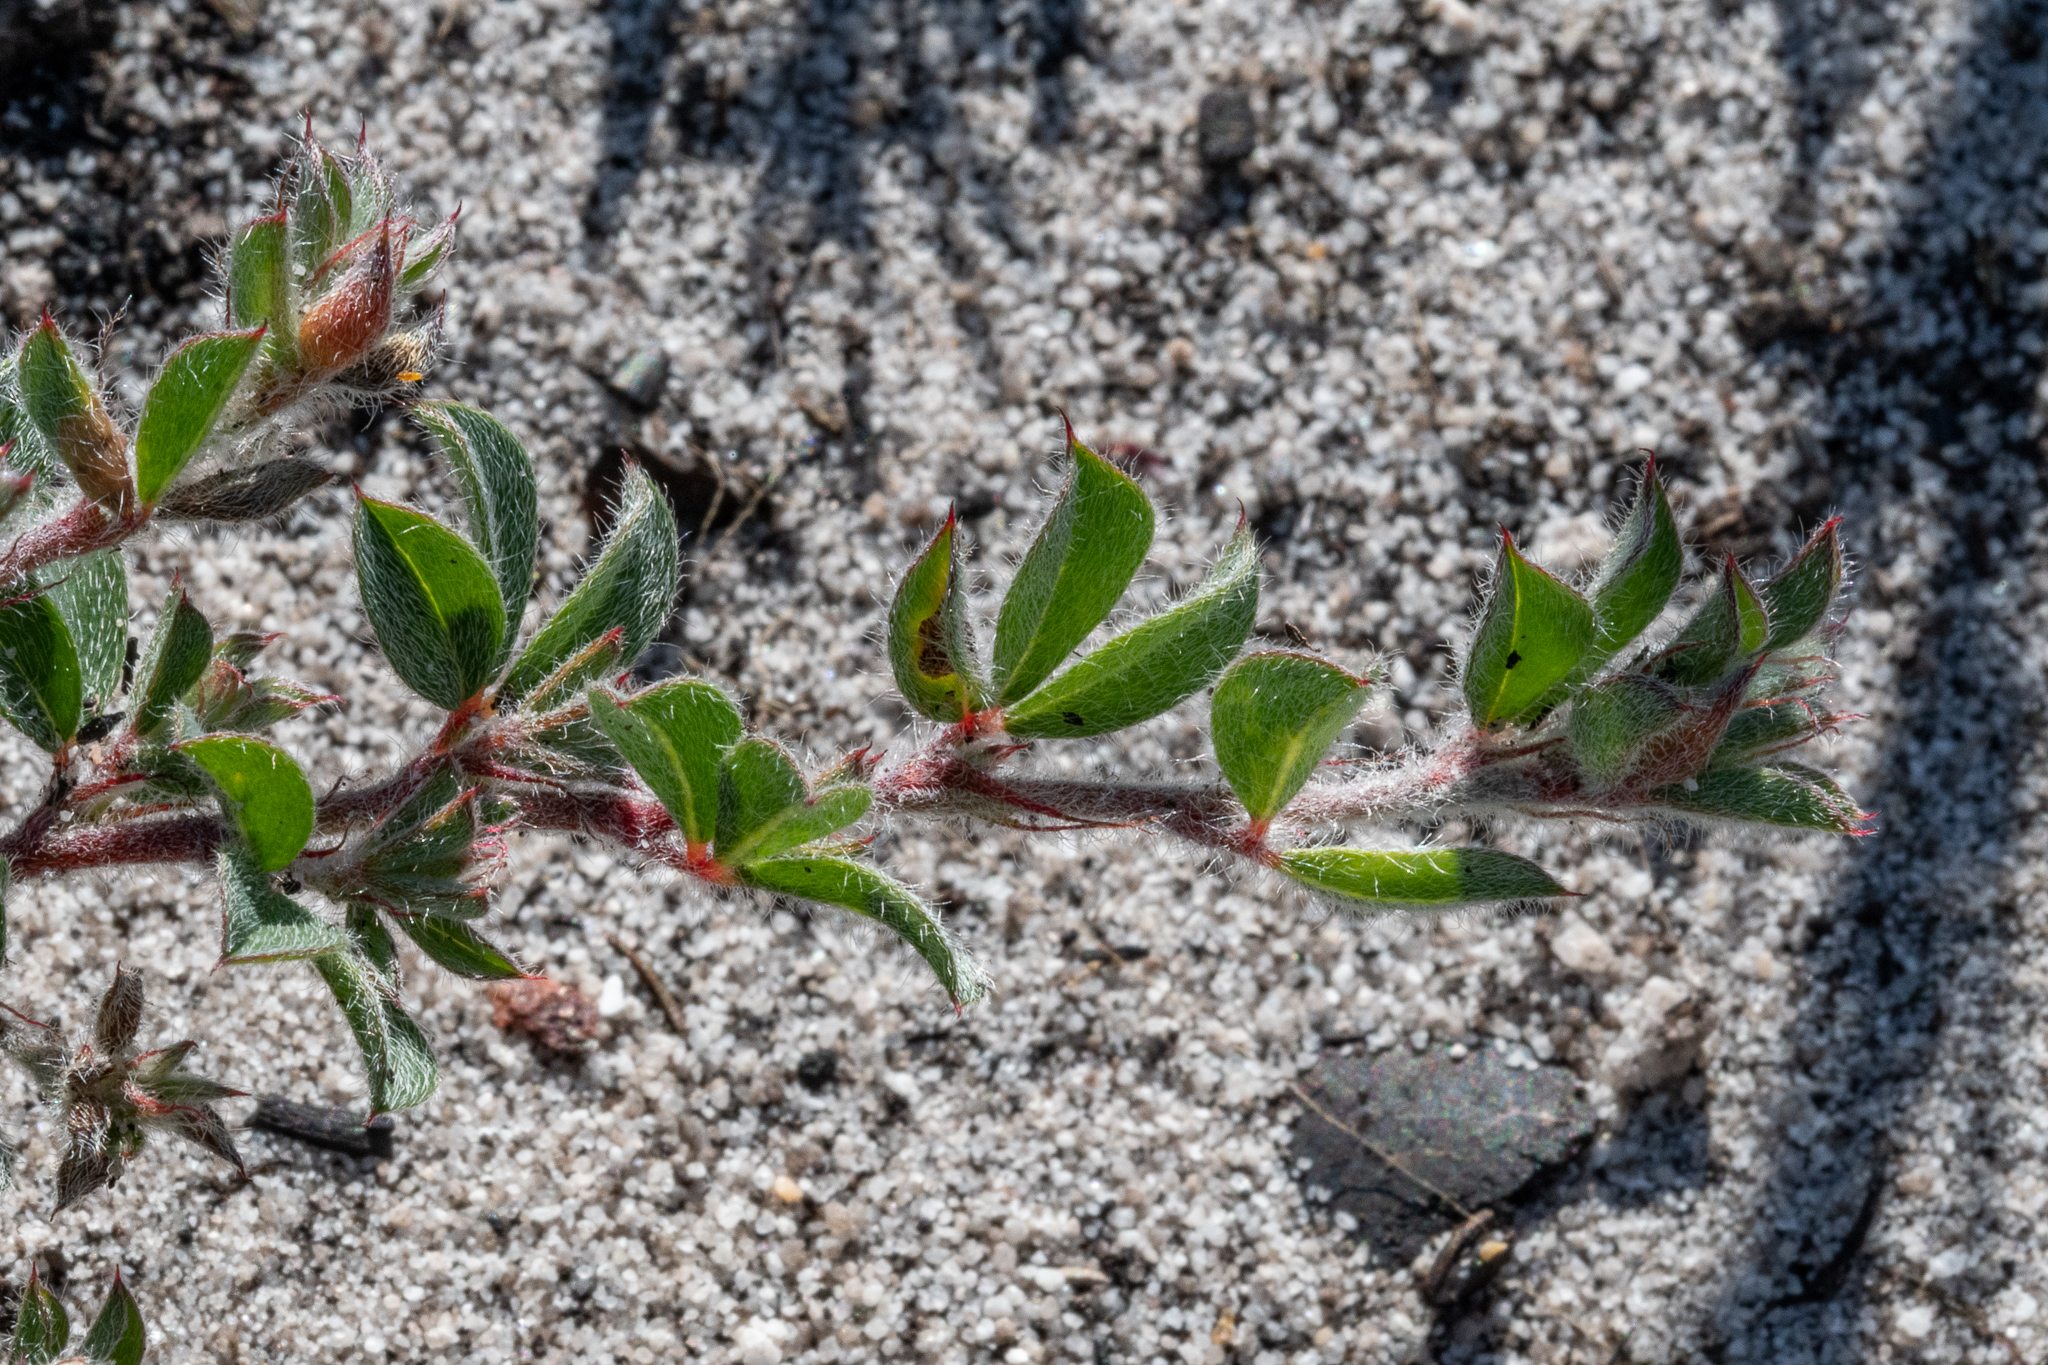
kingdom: Plantae
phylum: Tracheophyta
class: Magnoliopsida
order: Fabales
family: Fabaceae
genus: Indigofera
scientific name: Indigofera glomerata
